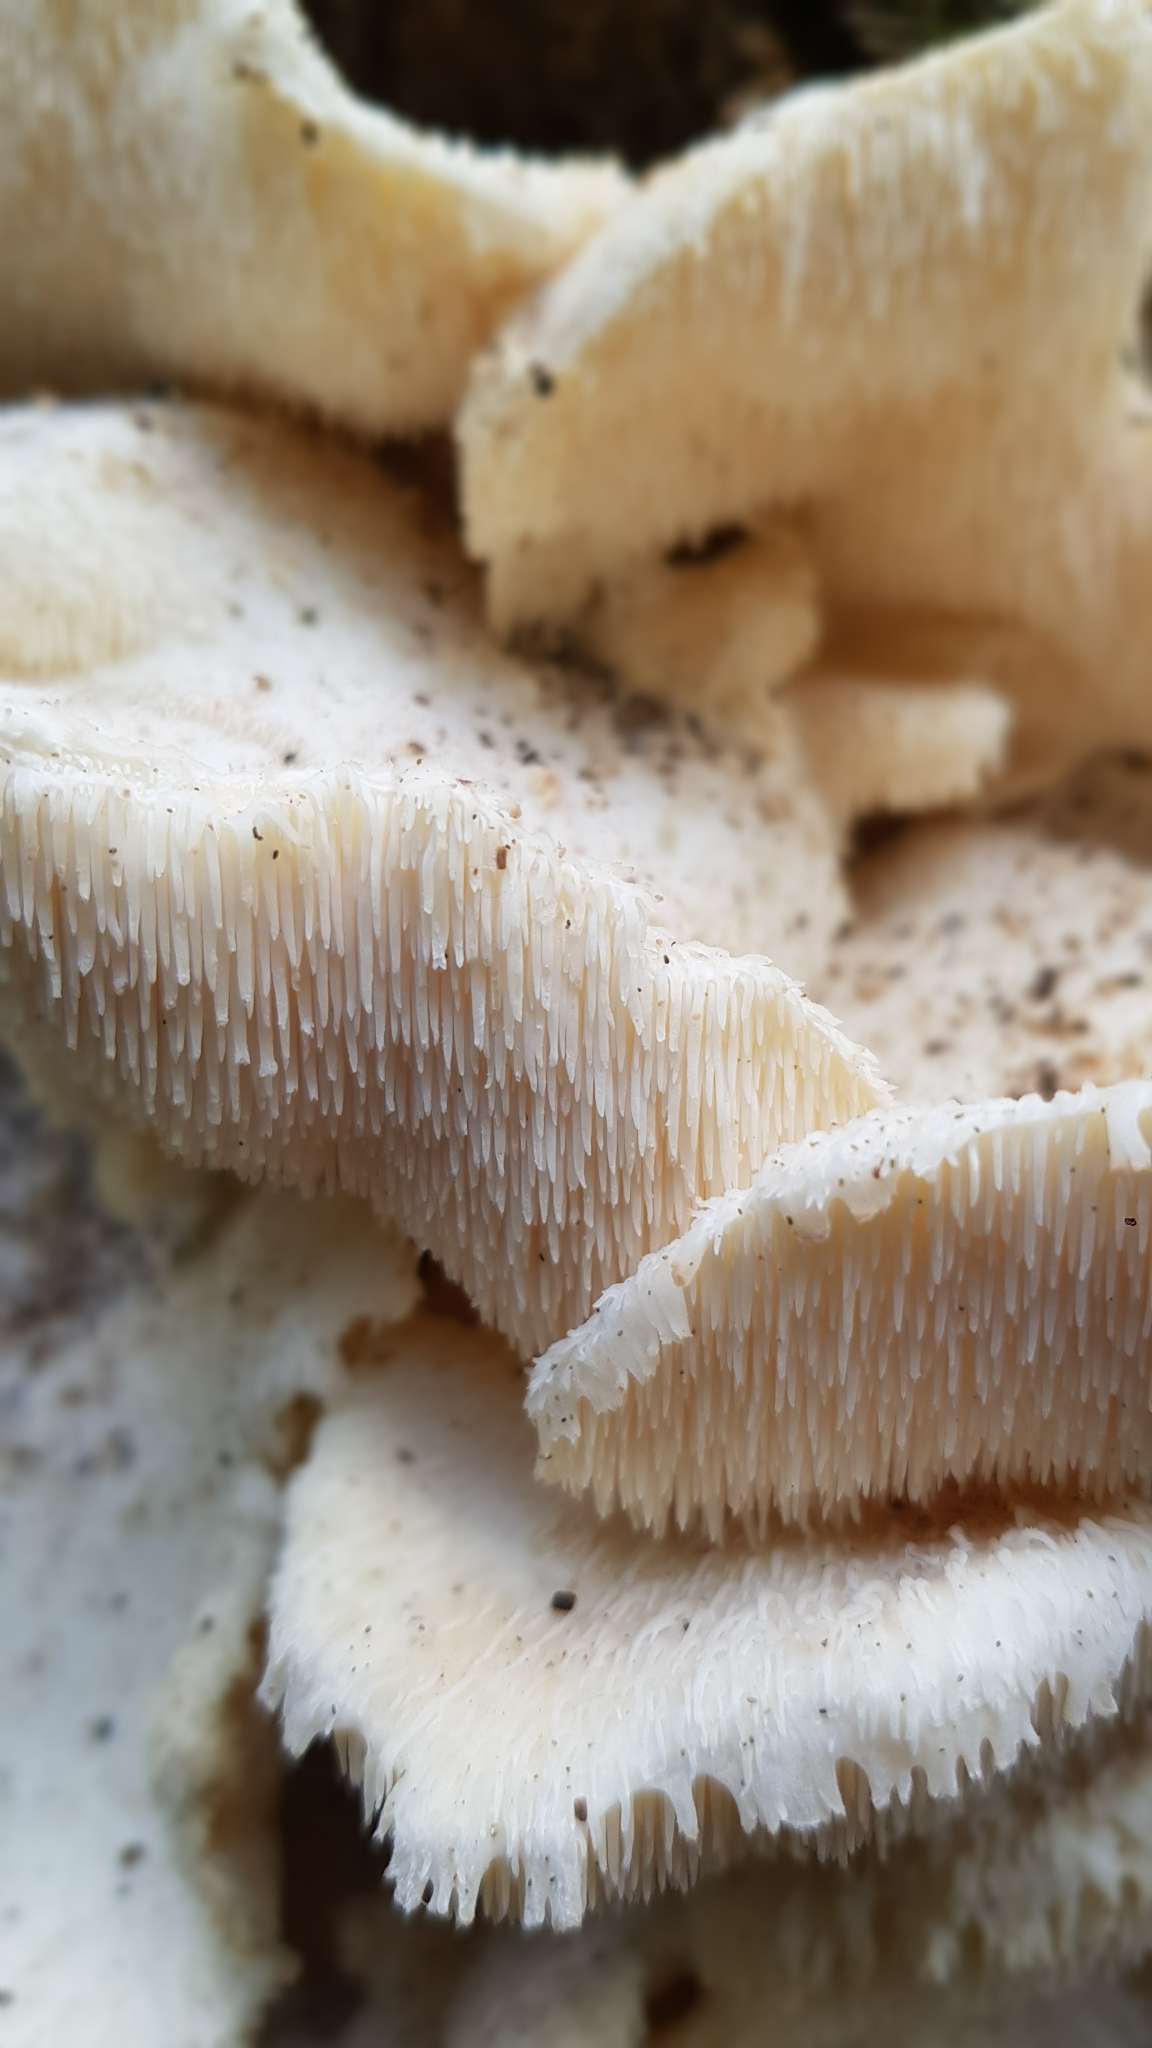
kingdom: Fungi
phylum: Basidiomycota
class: Agaricomycetes
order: Russulales
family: Hericiaceae
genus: Hericium
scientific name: Hericium cirrhatum
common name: Tiered tooth
